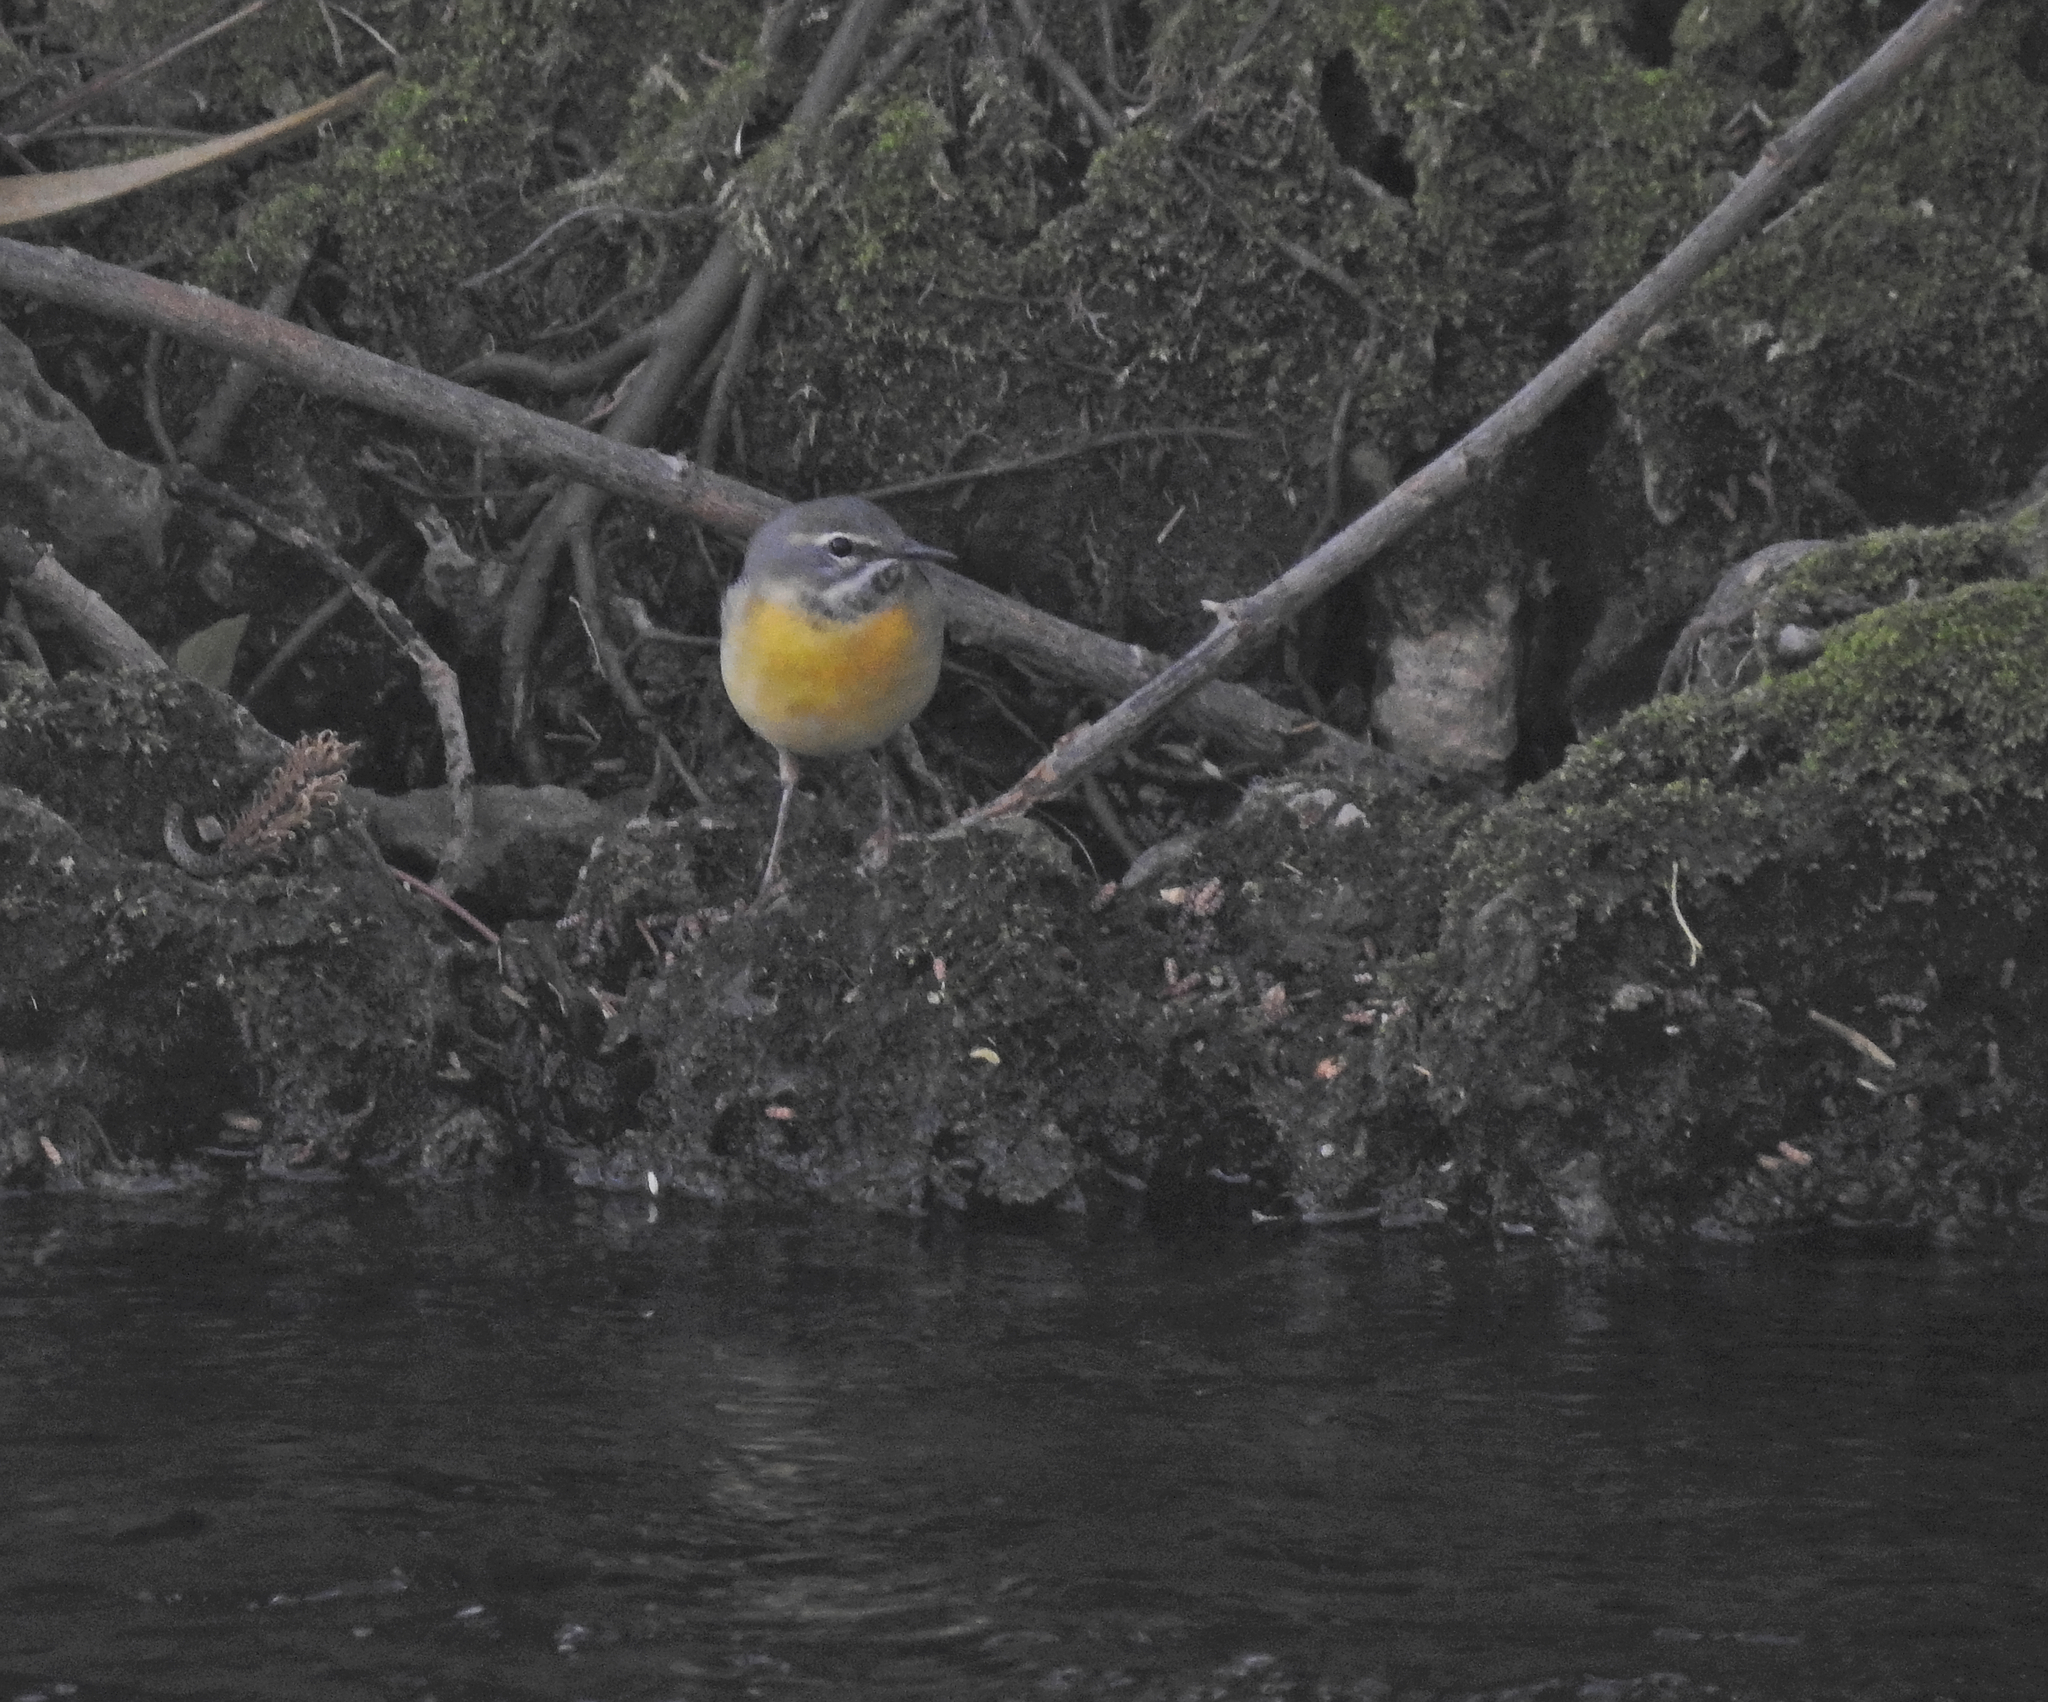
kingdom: Animalia
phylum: Chordata
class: Aves
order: Passeriformes
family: Motacillidae
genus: Motacilla
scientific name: Motacilla cinerea
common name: Grey wagtail
